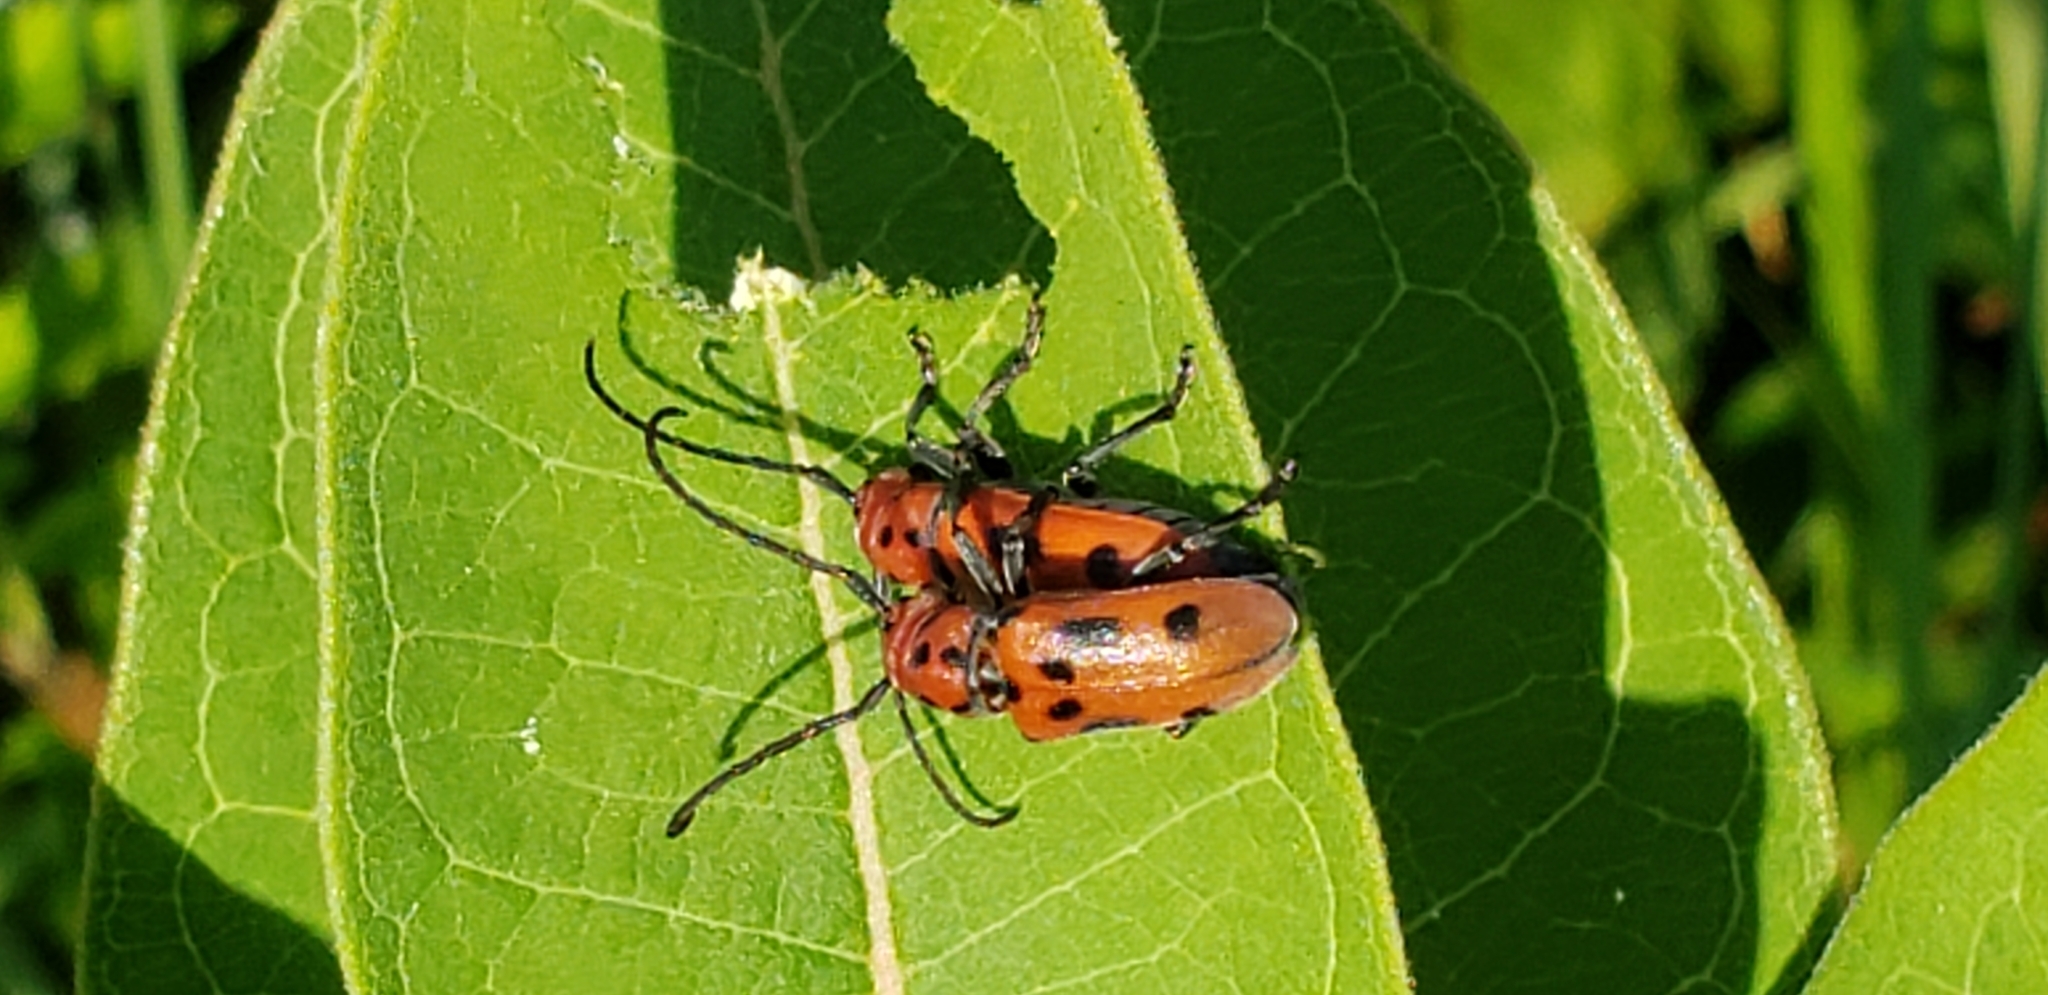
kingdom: Animalia
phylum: Arthropoda
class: Insecta
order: Coleoptera
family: Cerambycidae
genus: Tetraopes
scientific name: Tetraopes tetrophthalmus
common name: Red milkweed beetle
